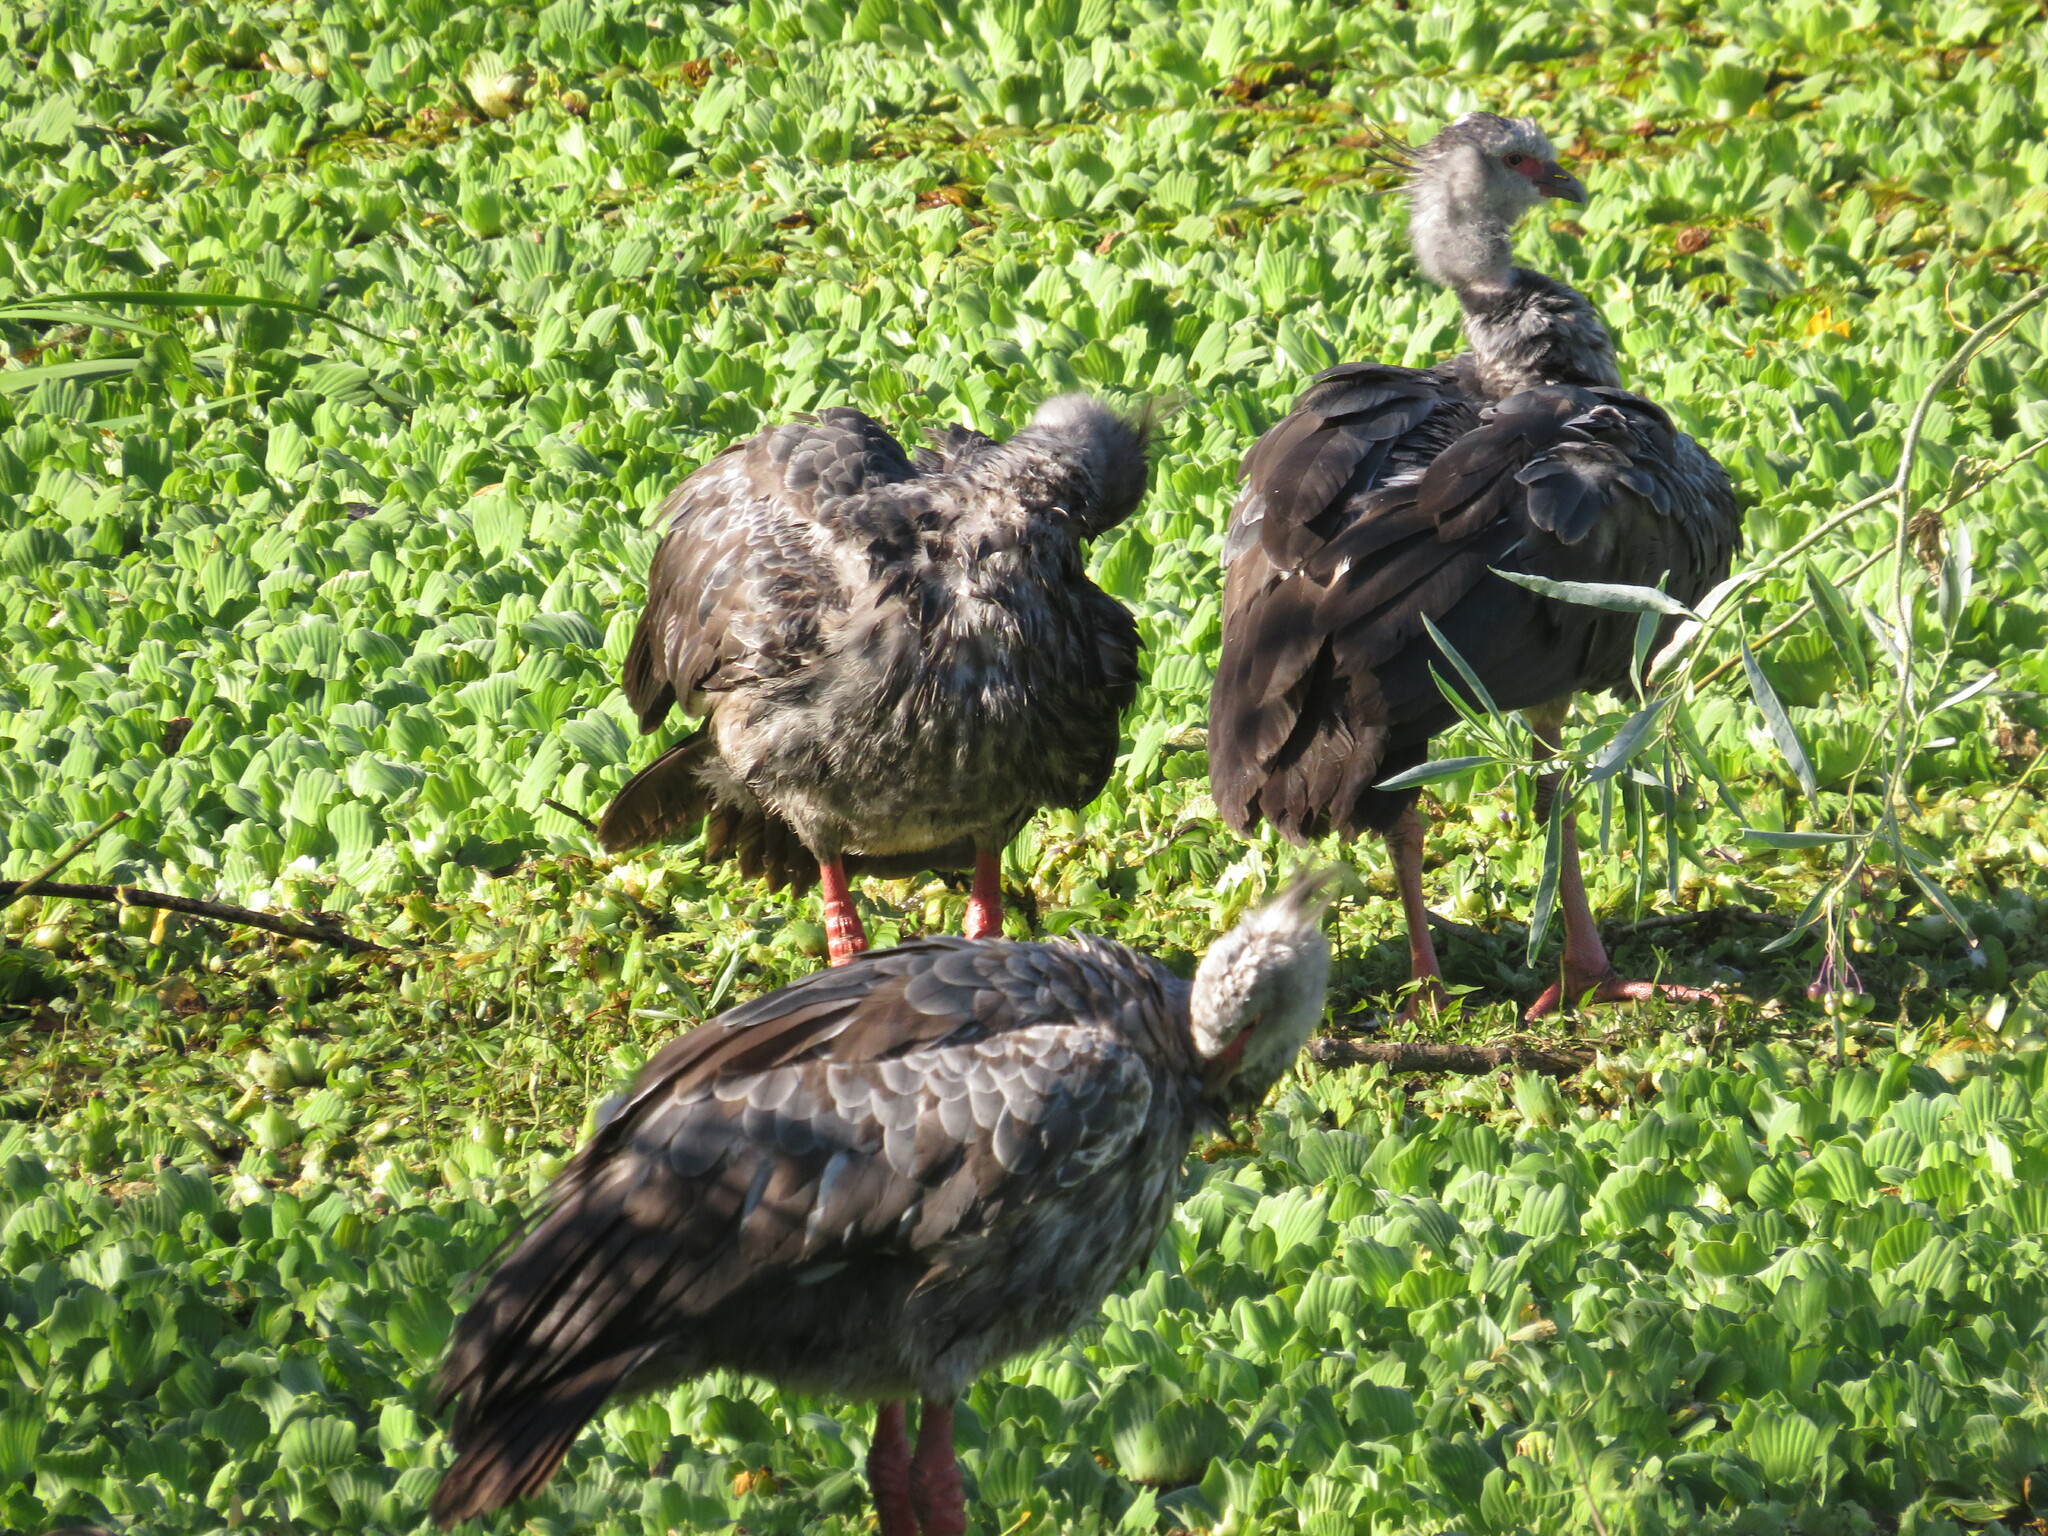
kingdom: Animalia
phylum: Chordata
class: Aves
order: Anseriformes
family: Anhimidae
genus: Chauna
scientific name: Chauna torquata
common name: Southern screamer
